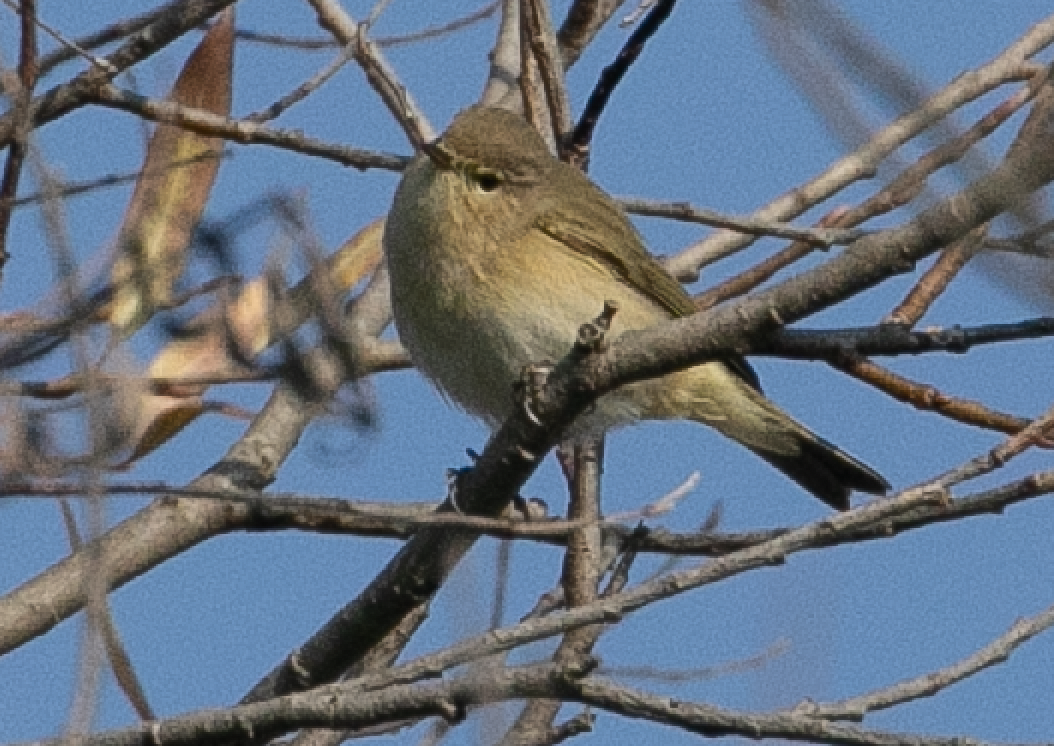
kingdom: Animalia
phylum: Chordata
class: Aves
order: Passeriformes
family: Phylloscopidae
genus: Phylloscopus
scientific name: Phylloscopus collybita
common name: Common chiffchaff
